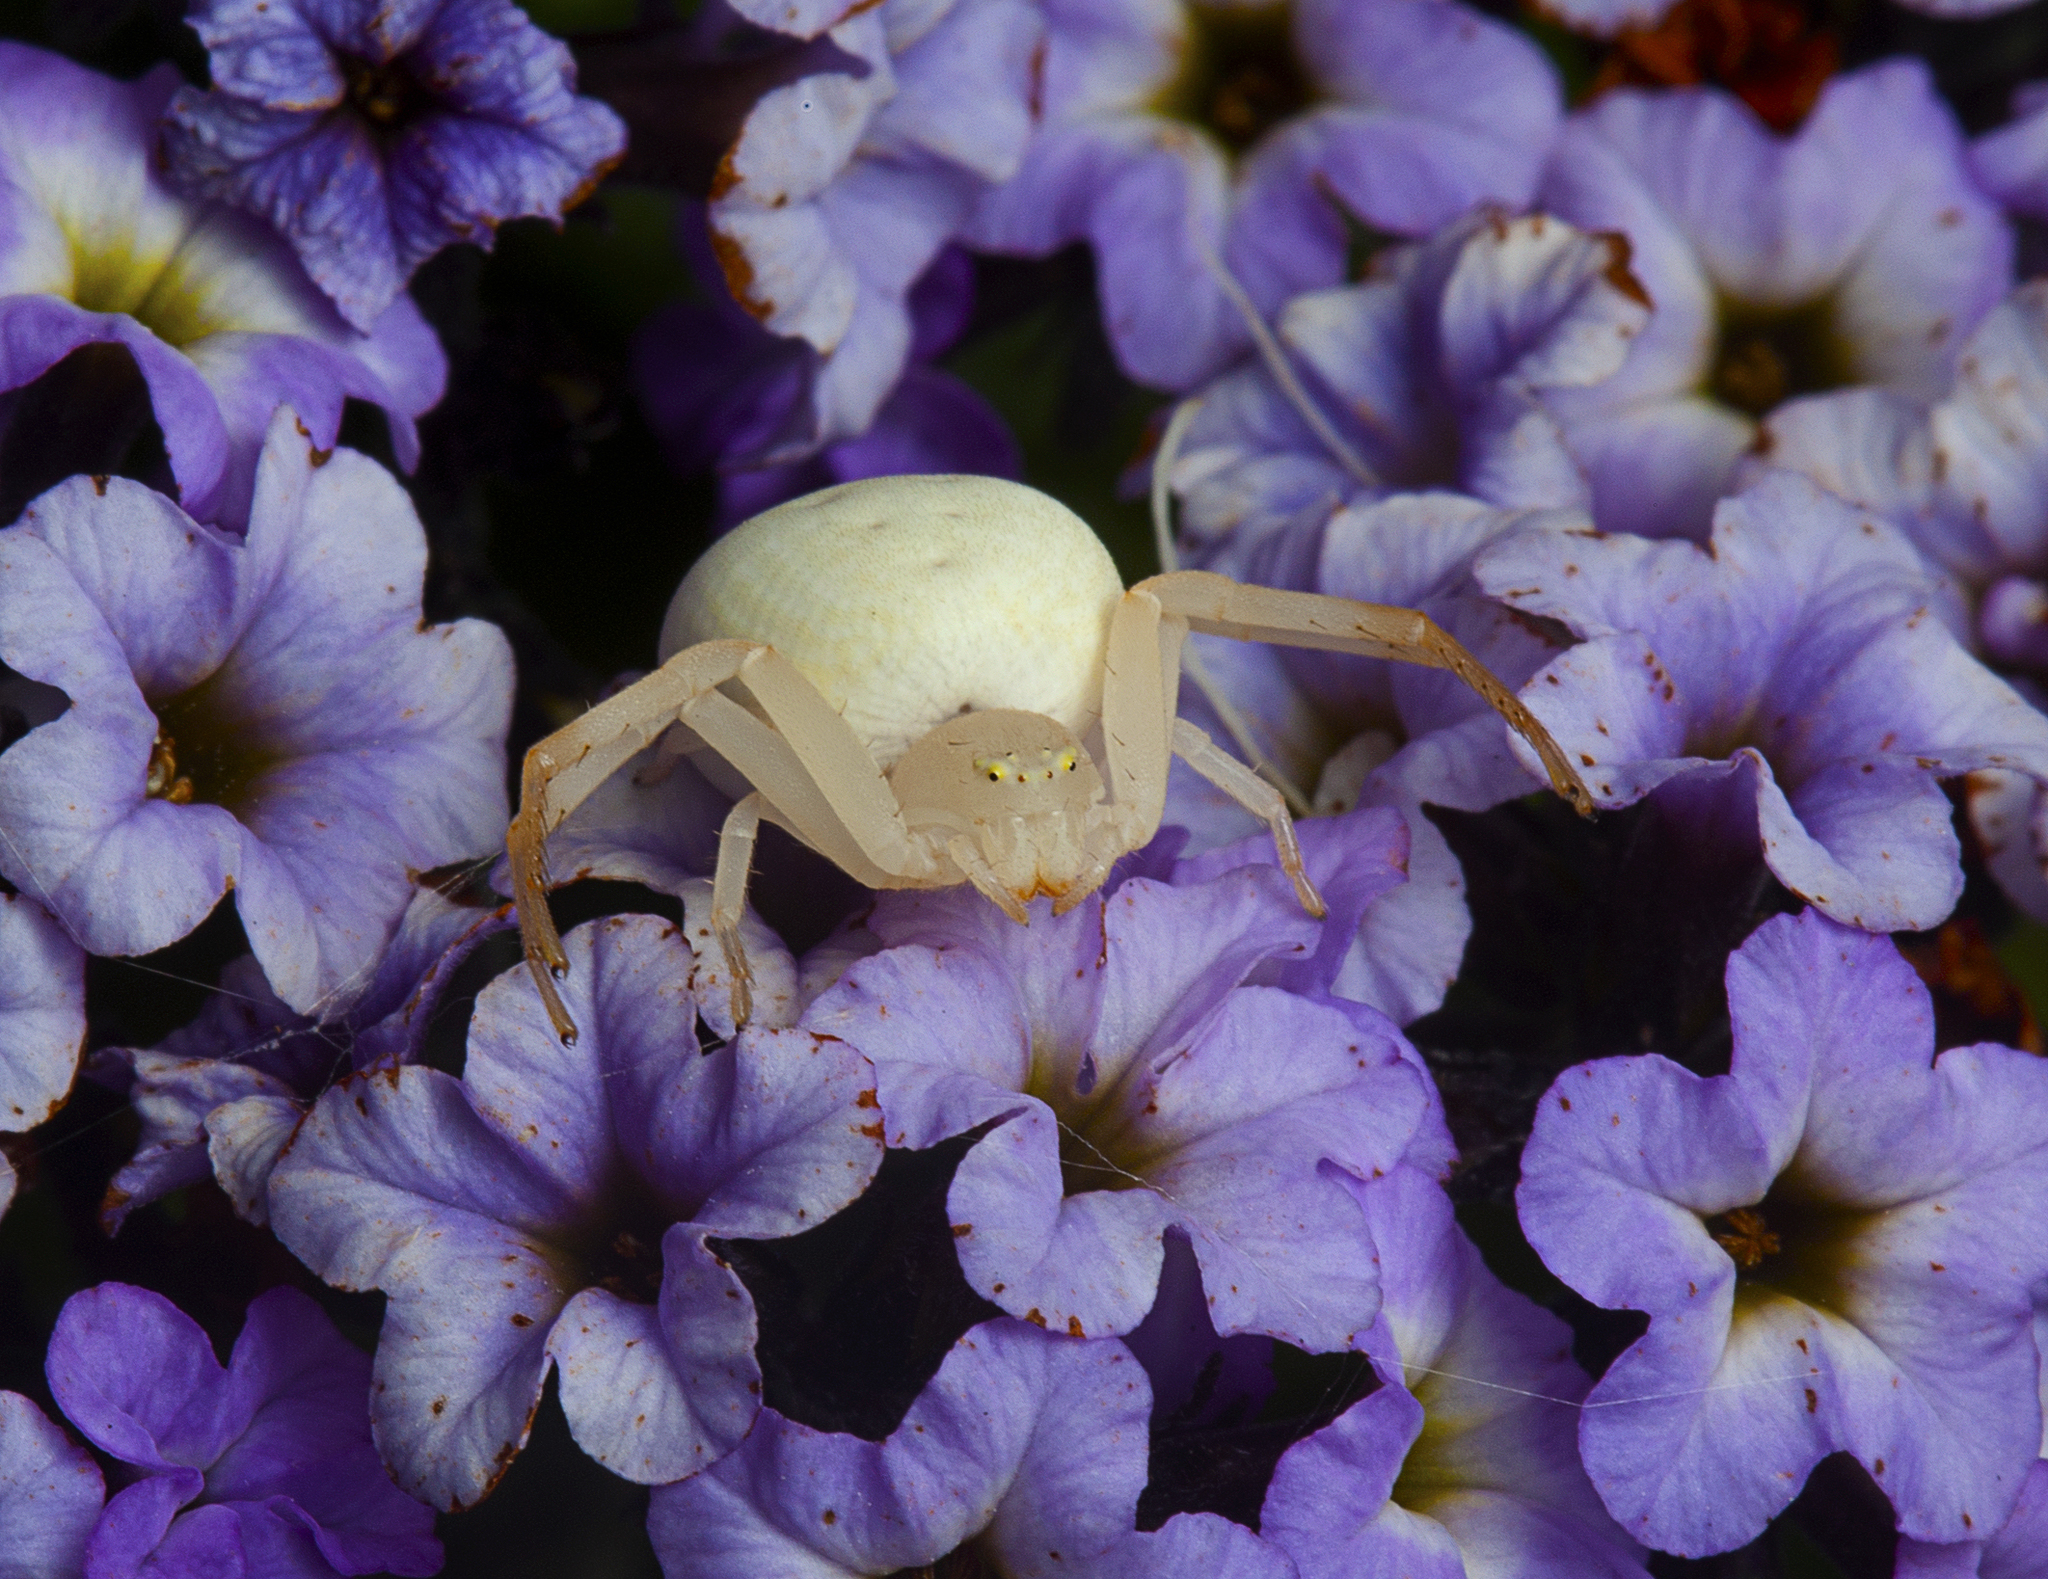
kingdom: Animalia
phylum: Arthropoda
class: Arachnida
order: Araneae
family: Thomisidae
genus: Zygometis
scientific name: Zygometis xanthogaster
